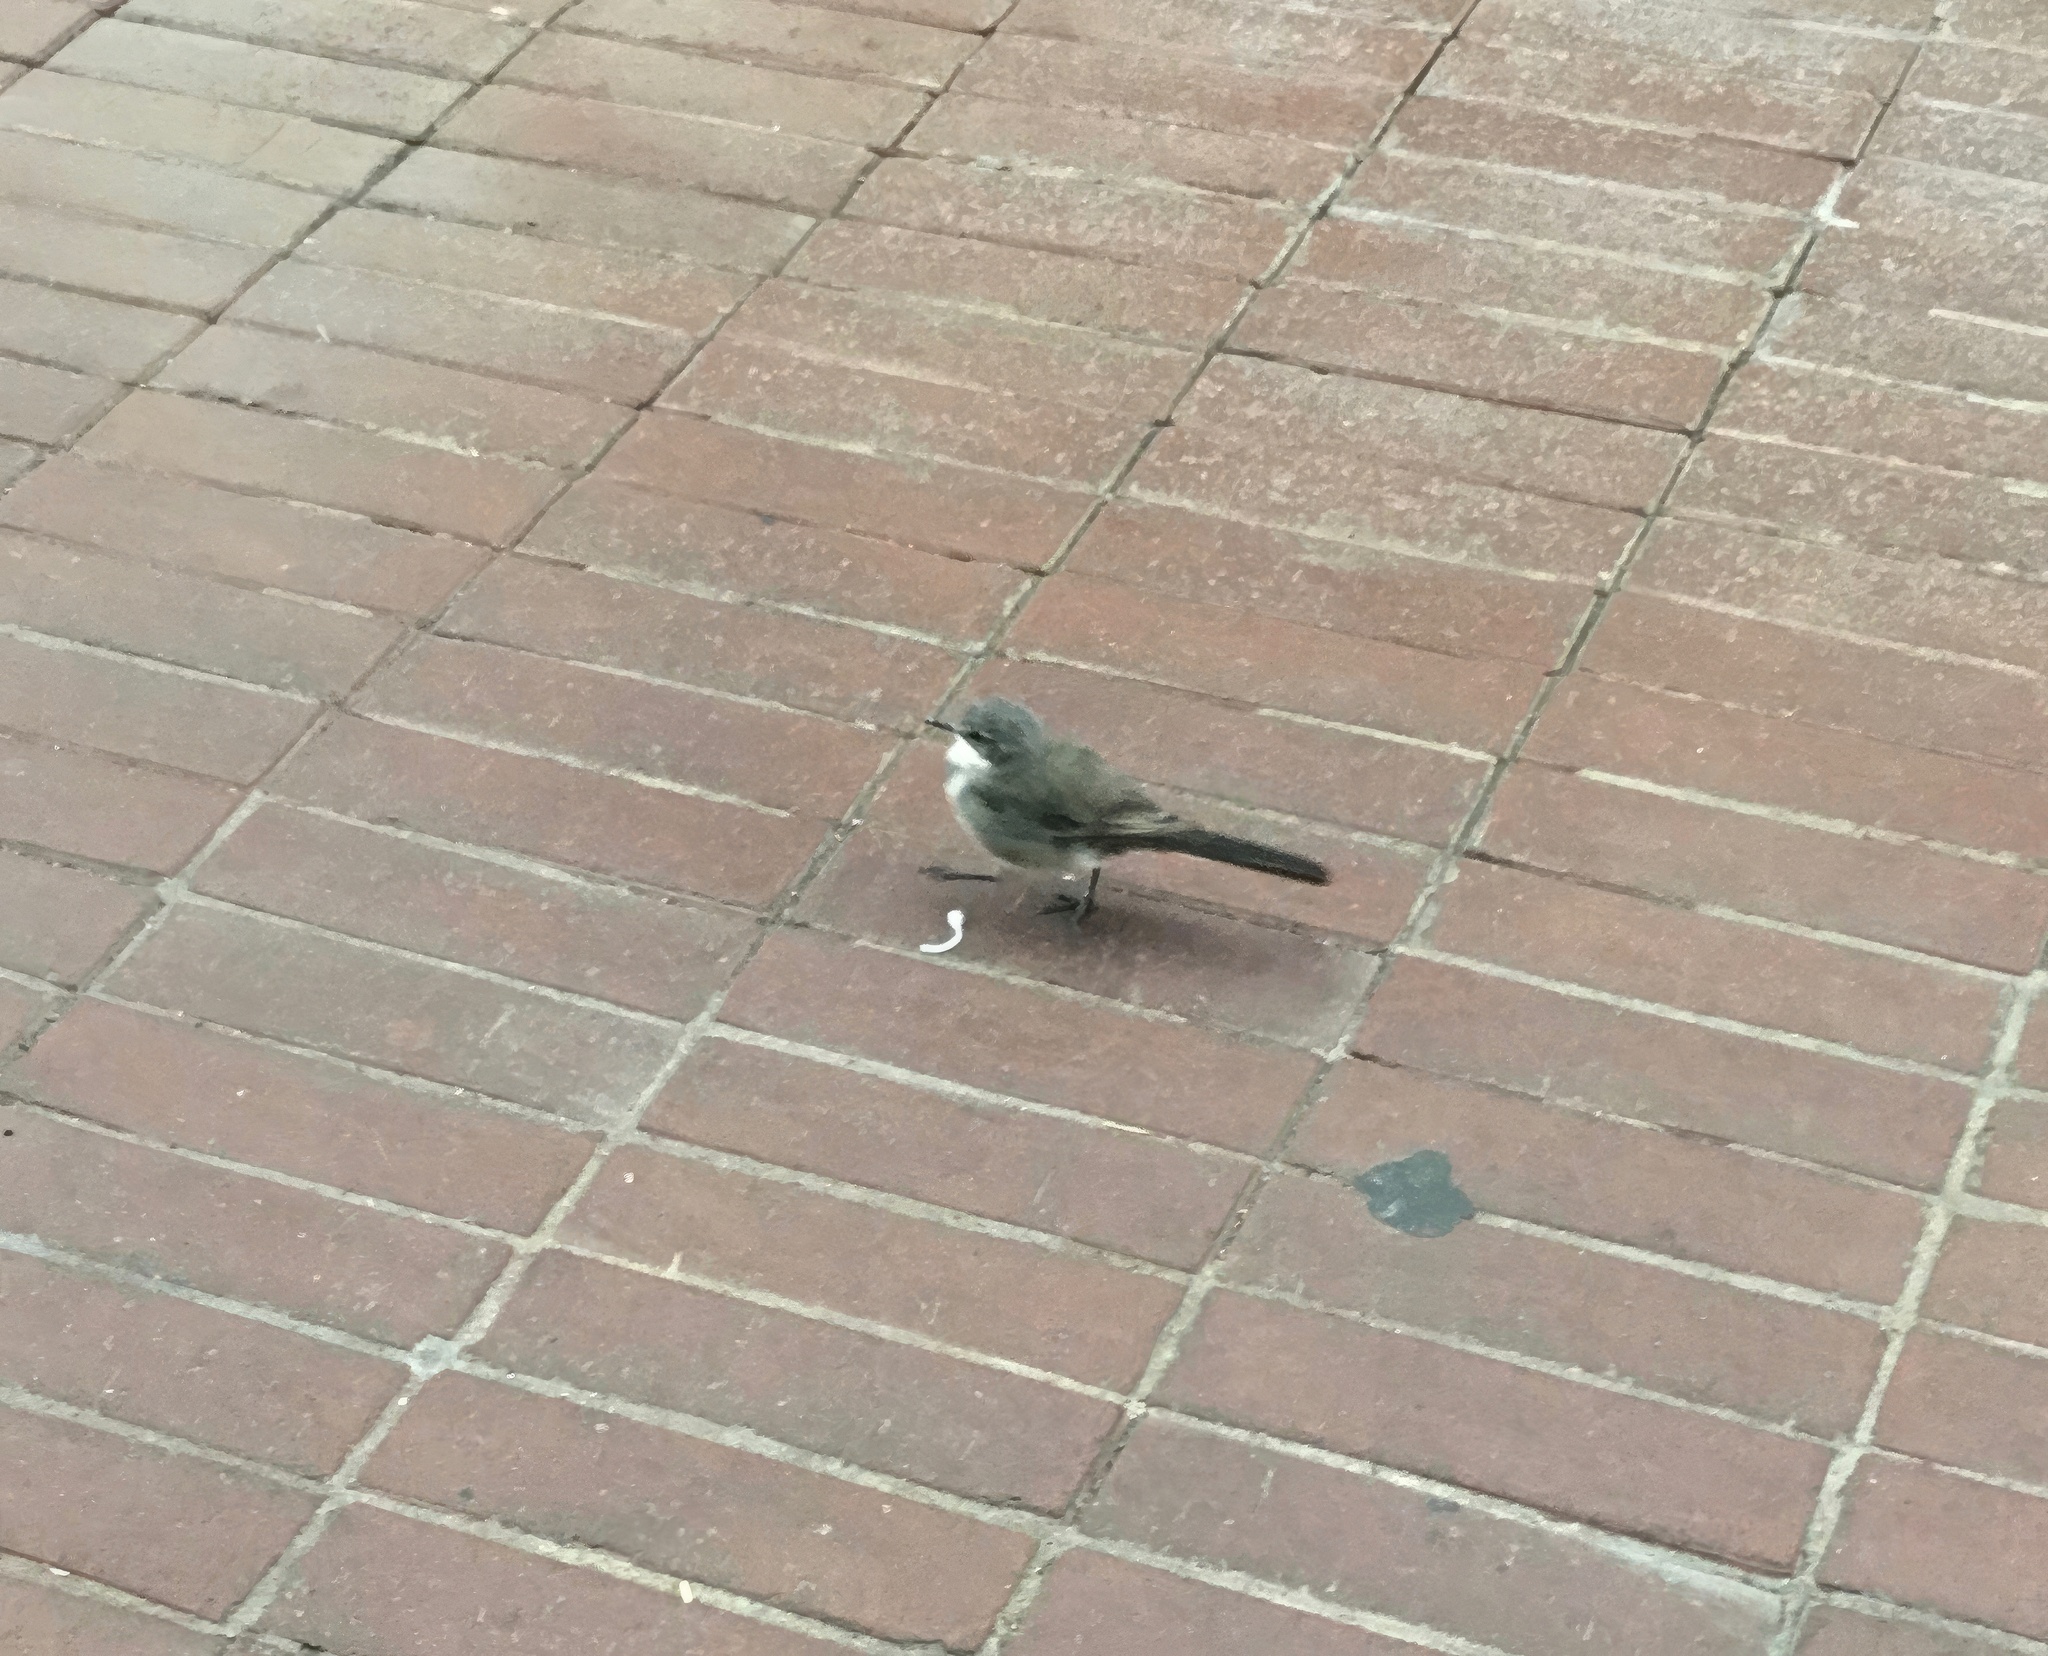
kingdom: Animalia
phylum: Chordata
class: Aves
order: Passeriformes
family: Motacillidae
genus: Motacilla
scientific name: Motacilla capensis
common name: Cape wagtail
